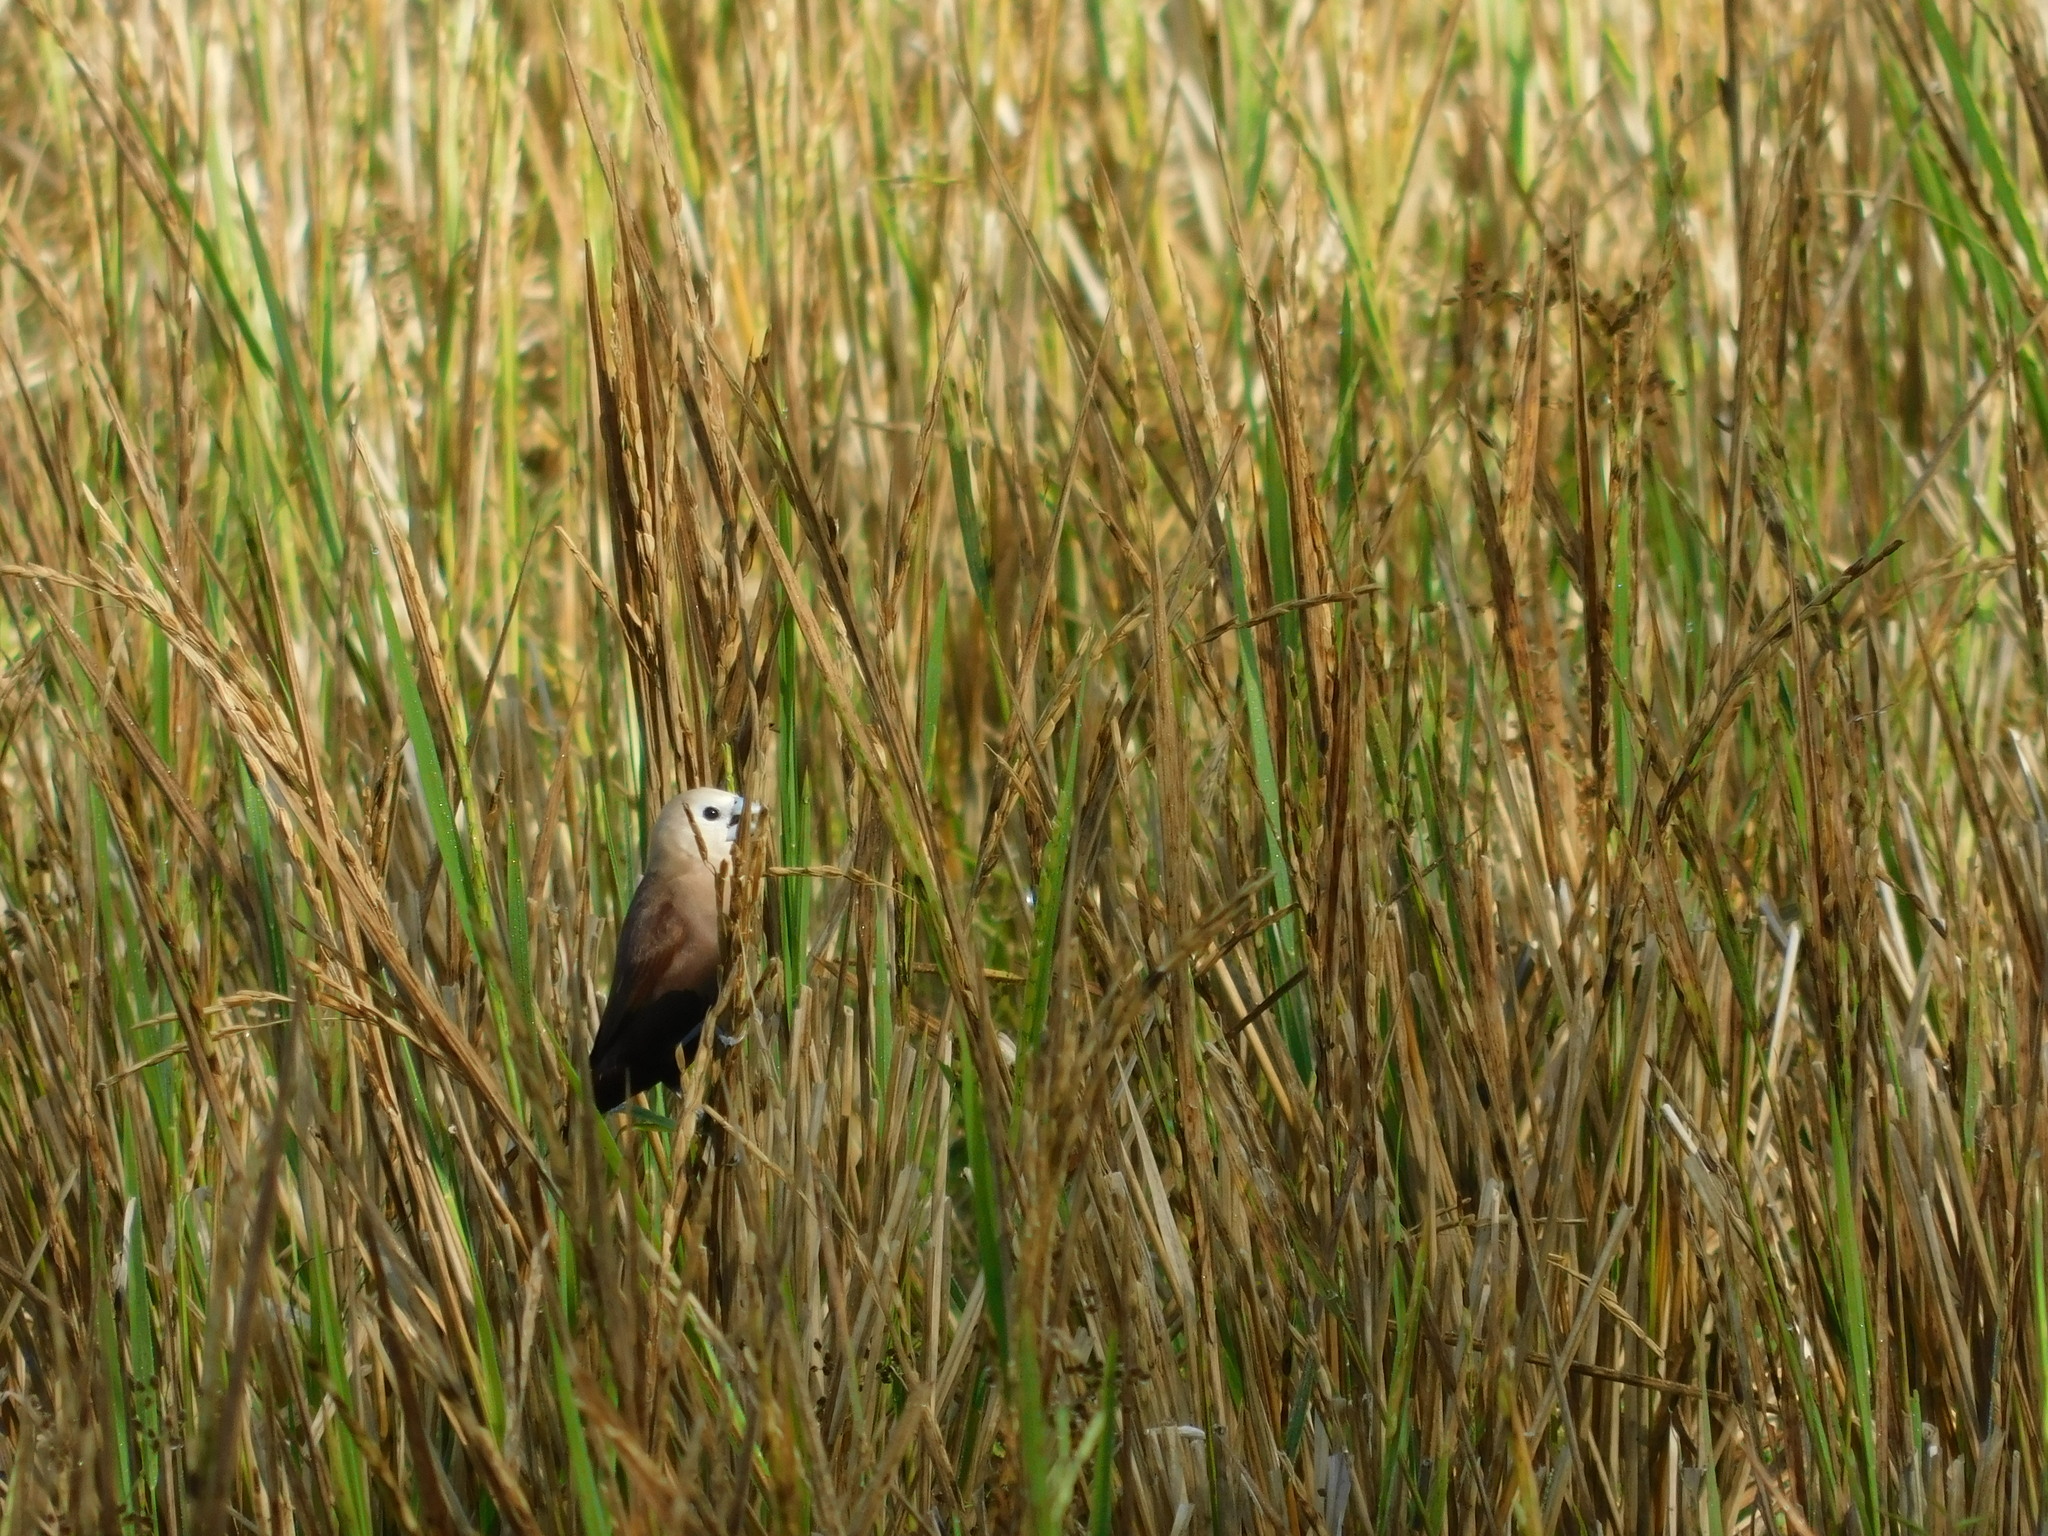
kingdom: Animalia
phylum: Chordata
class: Aves
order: Passeriformes
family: Estrildidae
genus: Lonchura
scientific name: Lonchura maja
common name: White-headed munia
